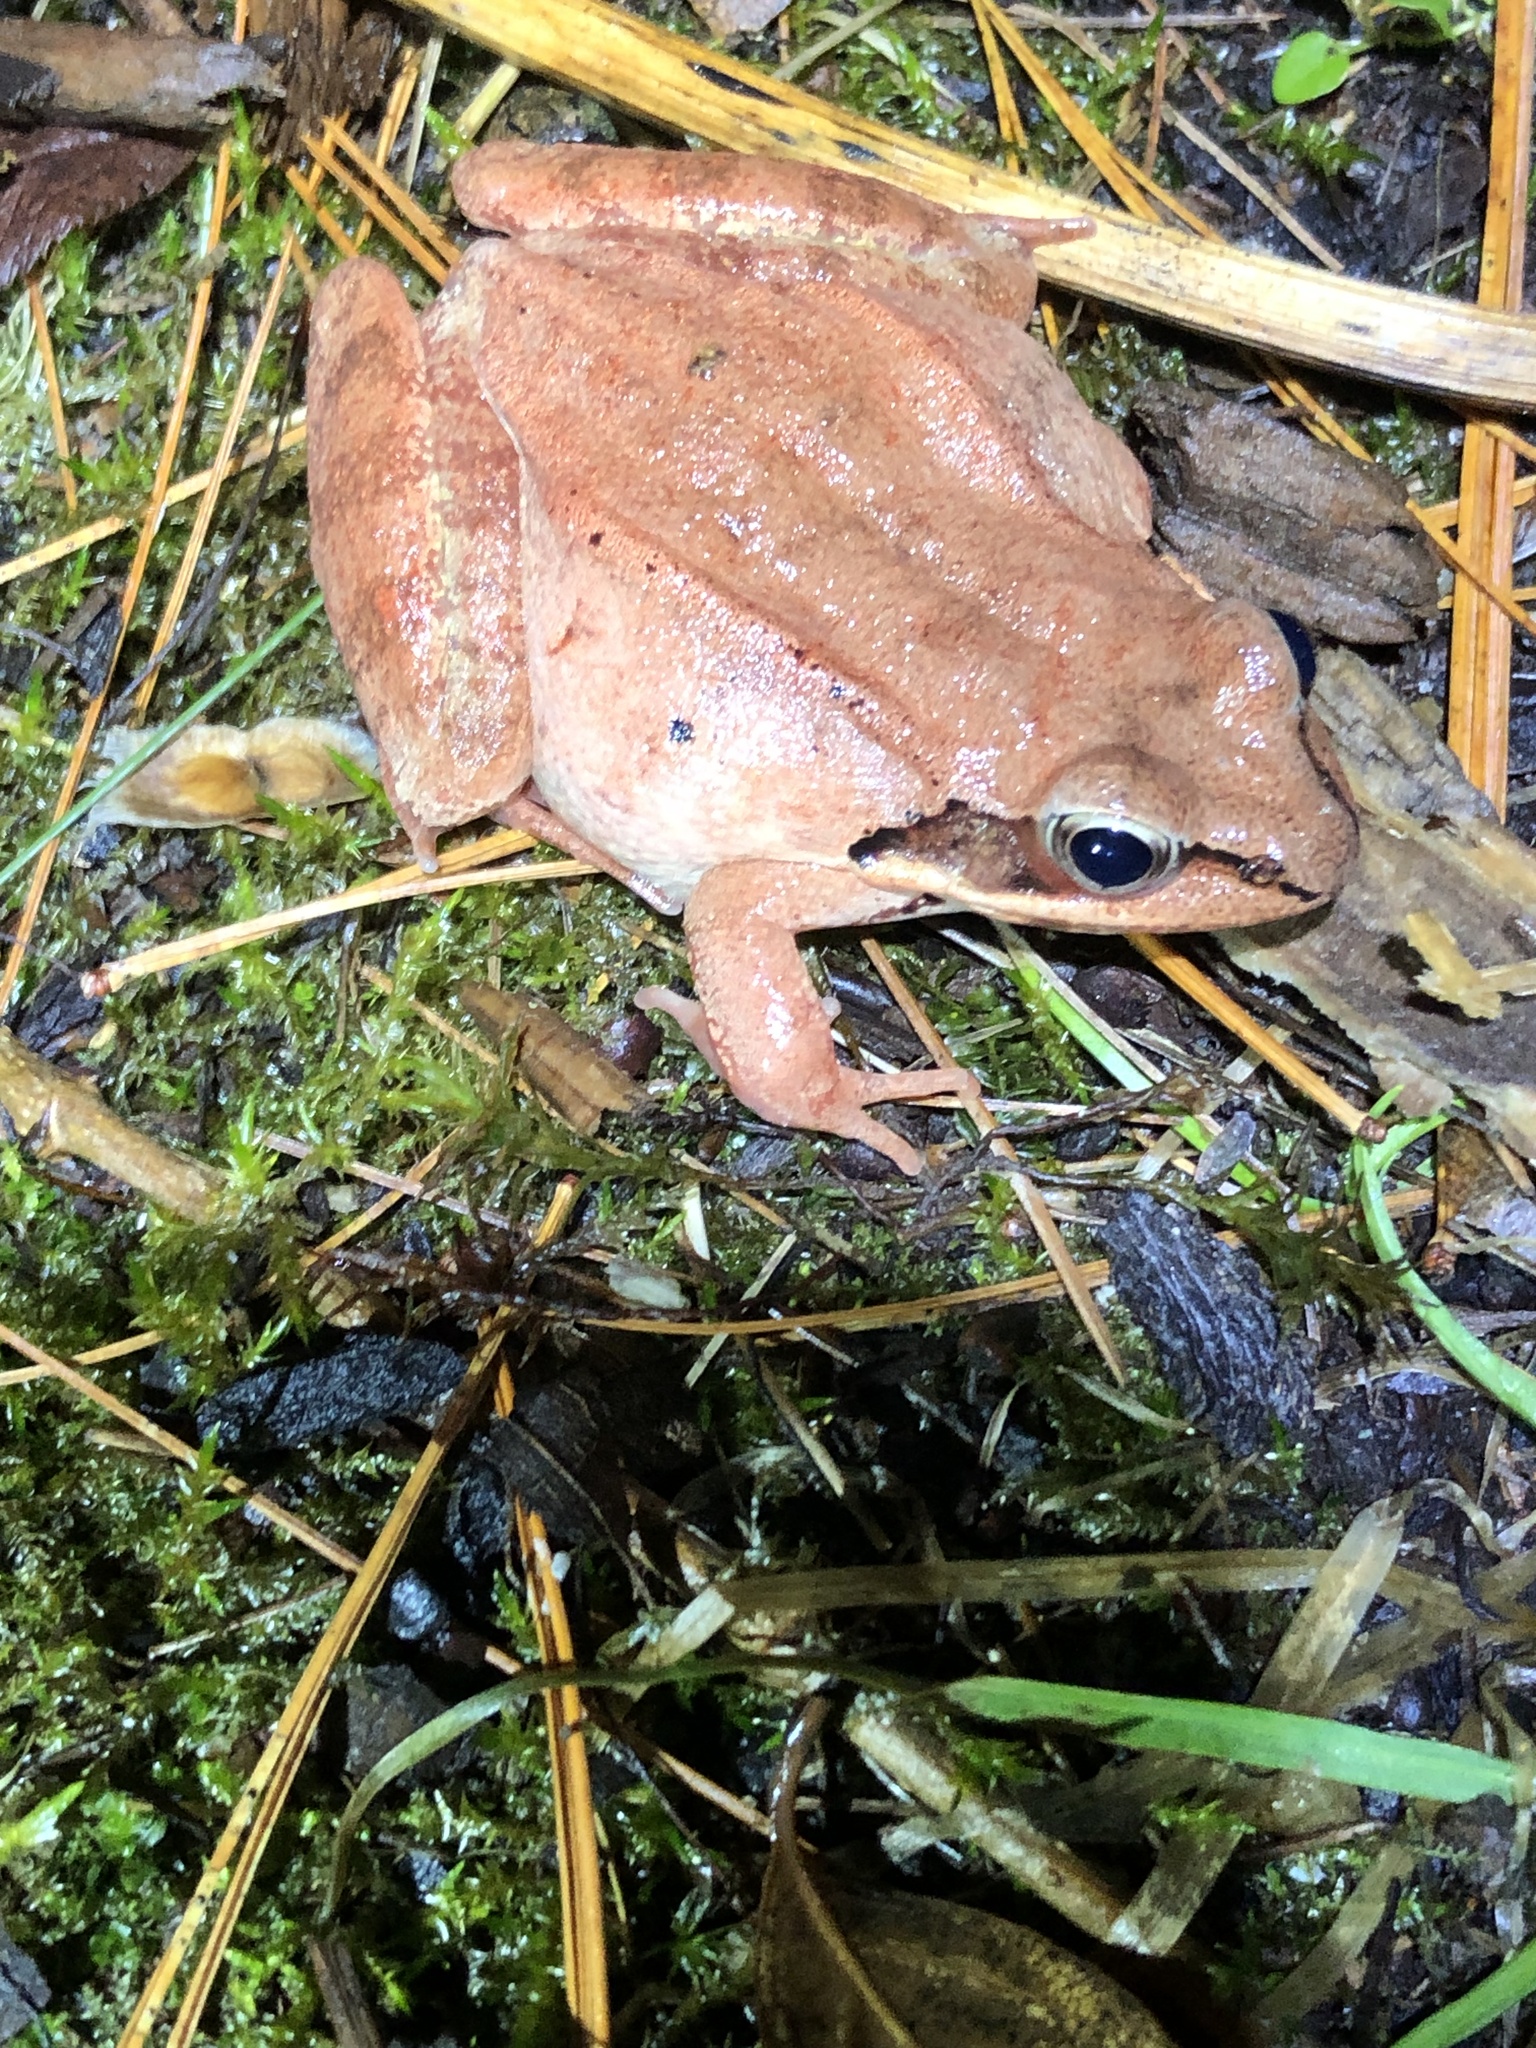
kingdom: Animalia
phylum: Chordata
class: Amphibia
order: Anura
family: Ranidae
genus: Lithobates
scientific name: Lithobates sylvaticus
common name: Wood frog
